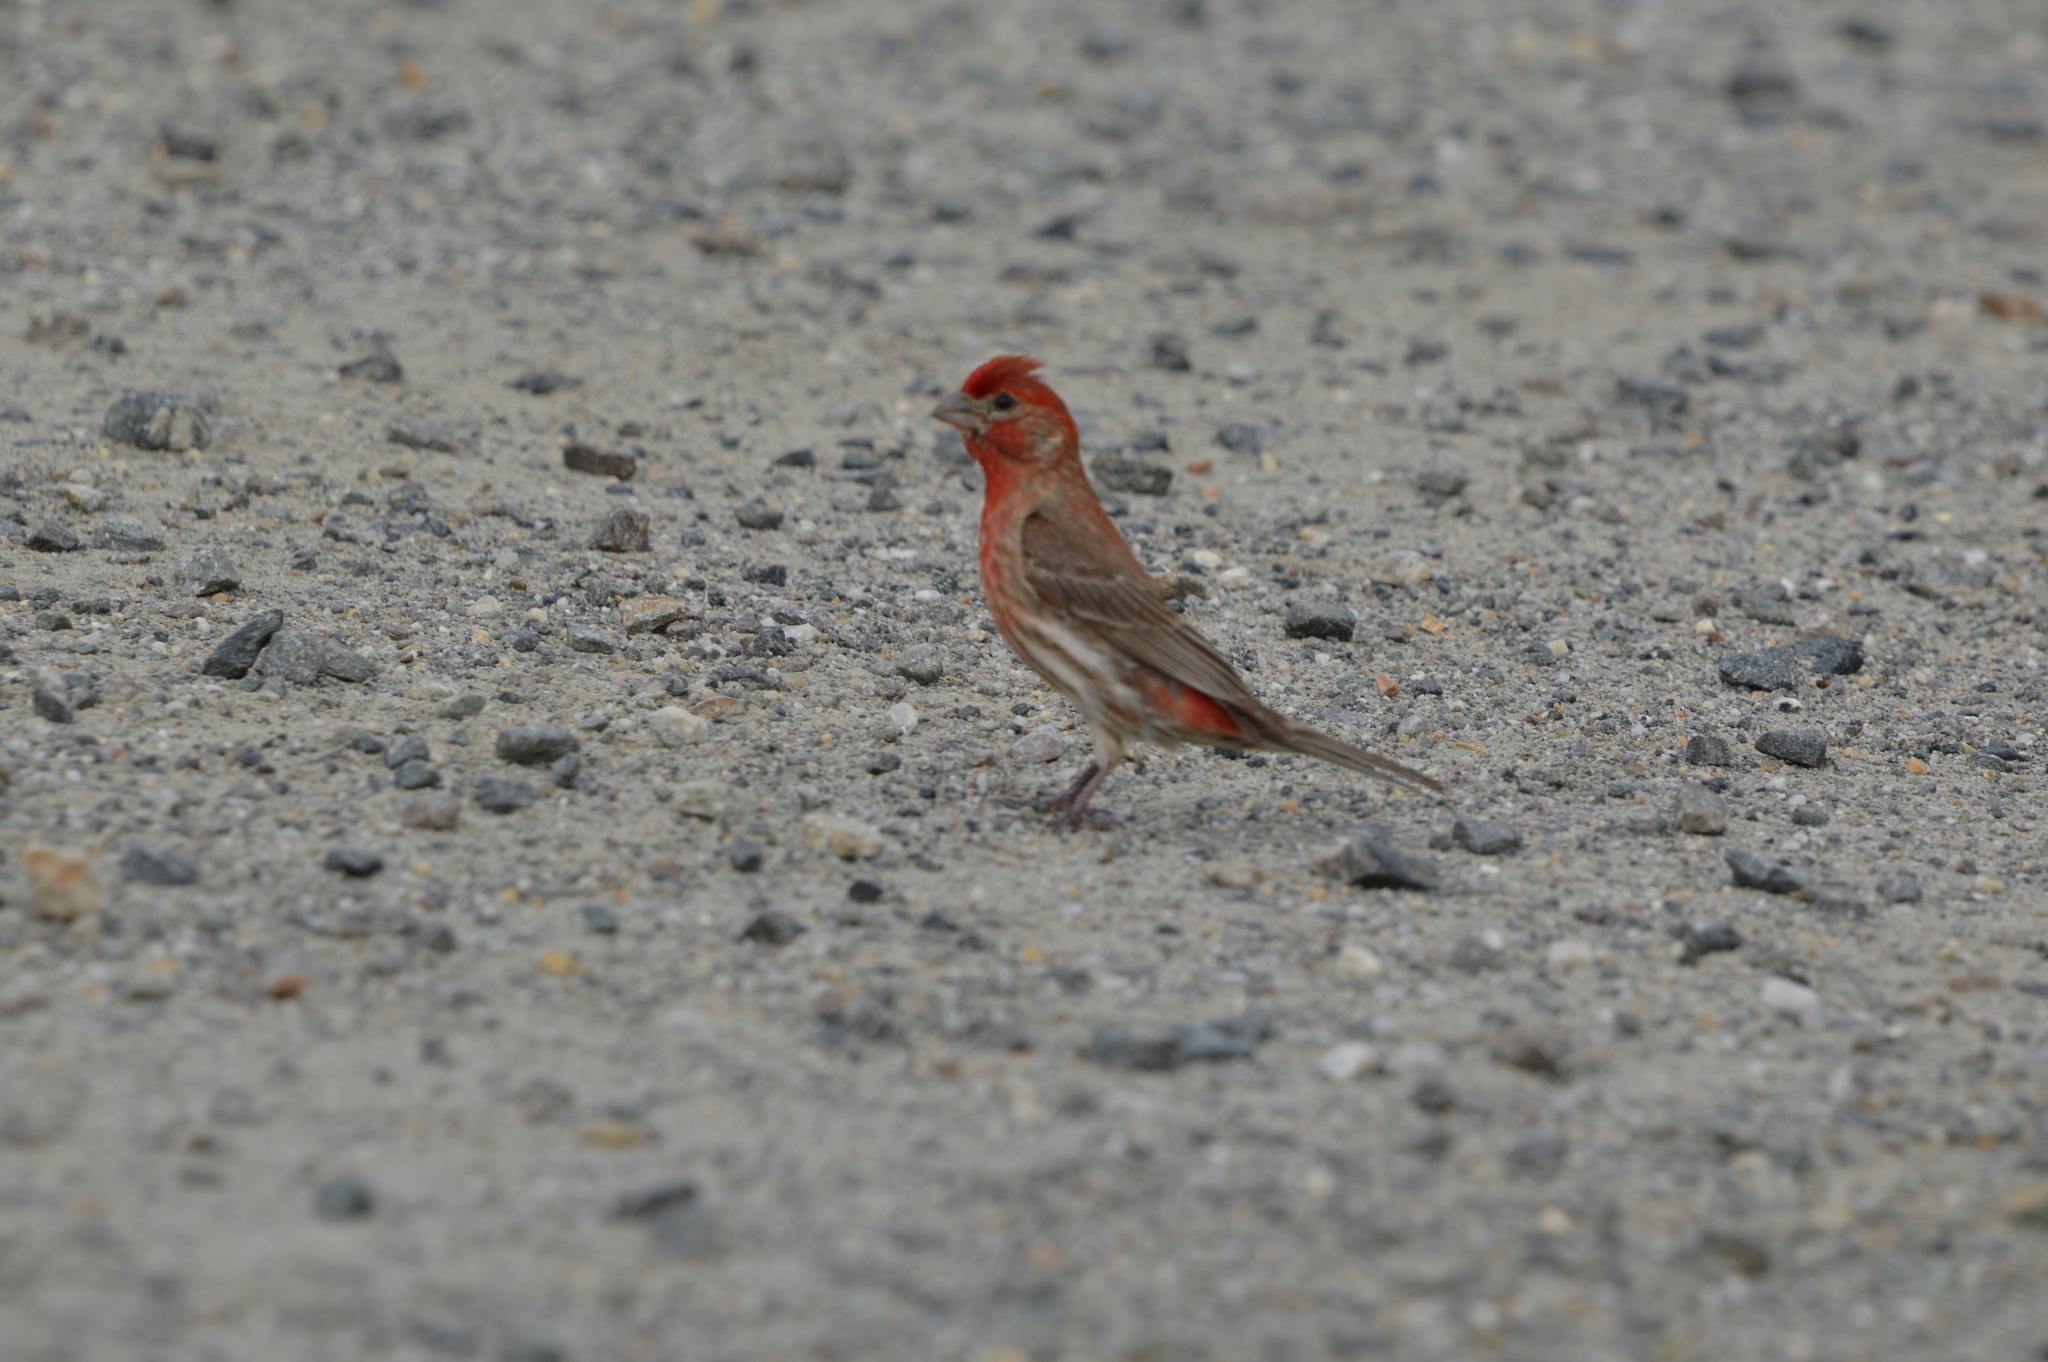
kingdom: Animalia
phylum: Chordata
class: Aves
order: Passeriformes
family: Fringillidae
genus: Haemorhous
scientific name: Haemorhous mexicanus
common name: House finch
